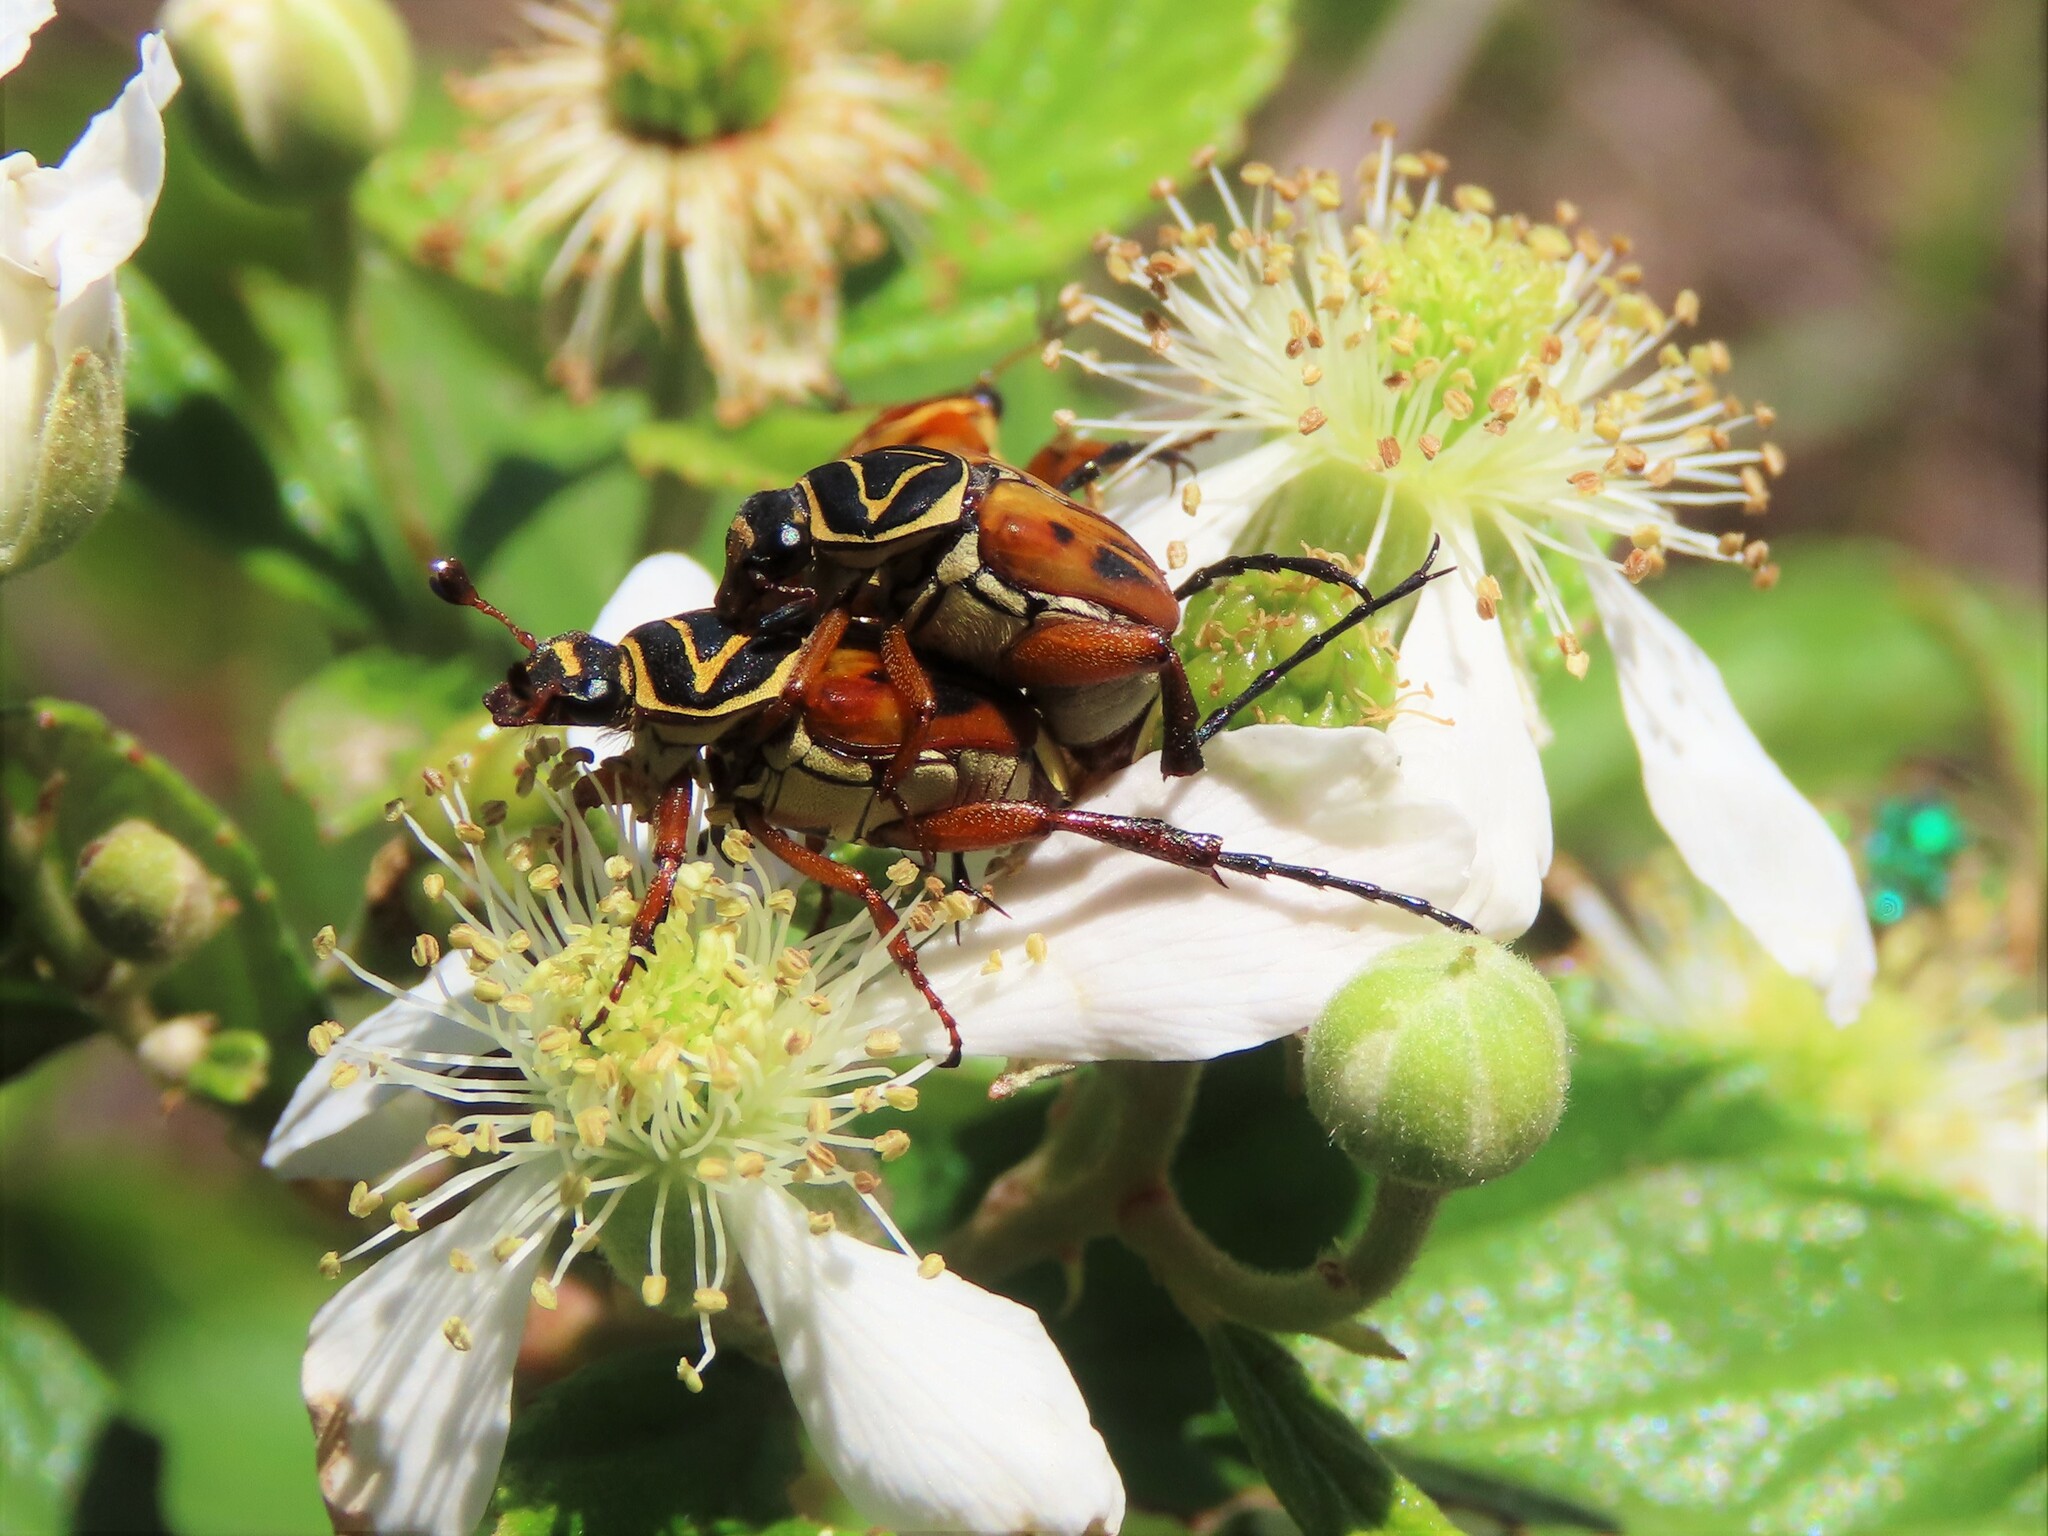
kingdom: Animalia
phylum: Arthropoda
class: Insecta
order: Coleoptera
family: Scarabaeidae
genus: Trigonopeltastes
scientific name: Trigonopeltastes delta
